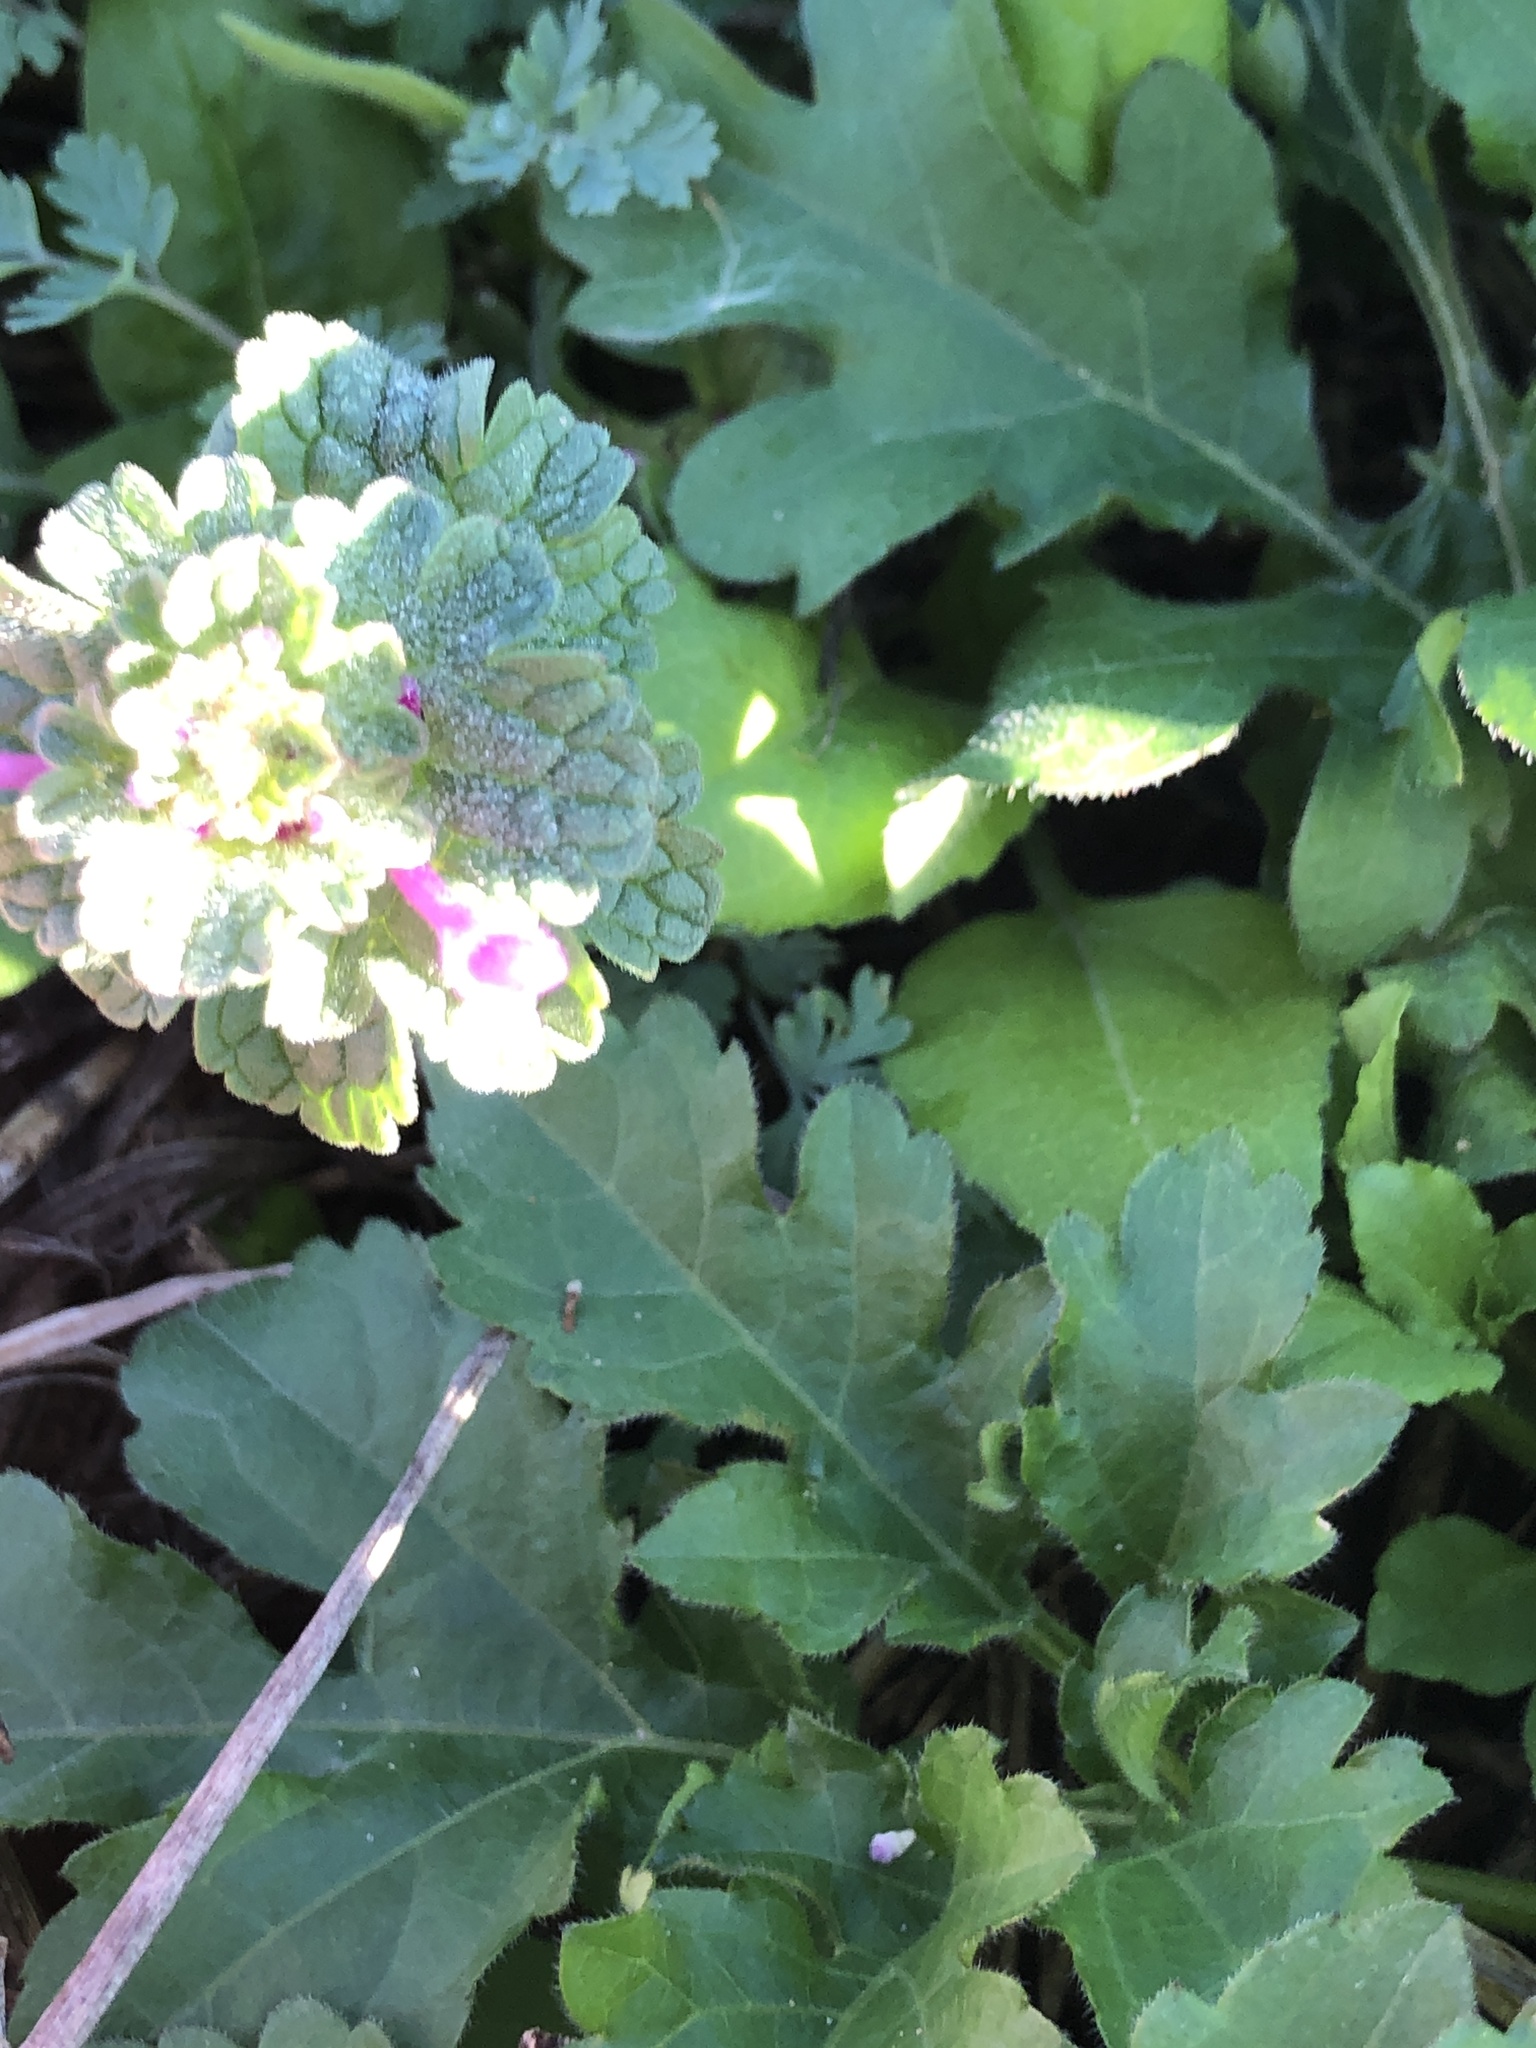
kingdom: Plantae
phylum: Tracheophyta
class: Magnoliopsida
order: Lamiales
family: Lamiaceae
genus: Lamium
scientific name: Lamium amplexicaule
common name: Henbit dead-nettle
